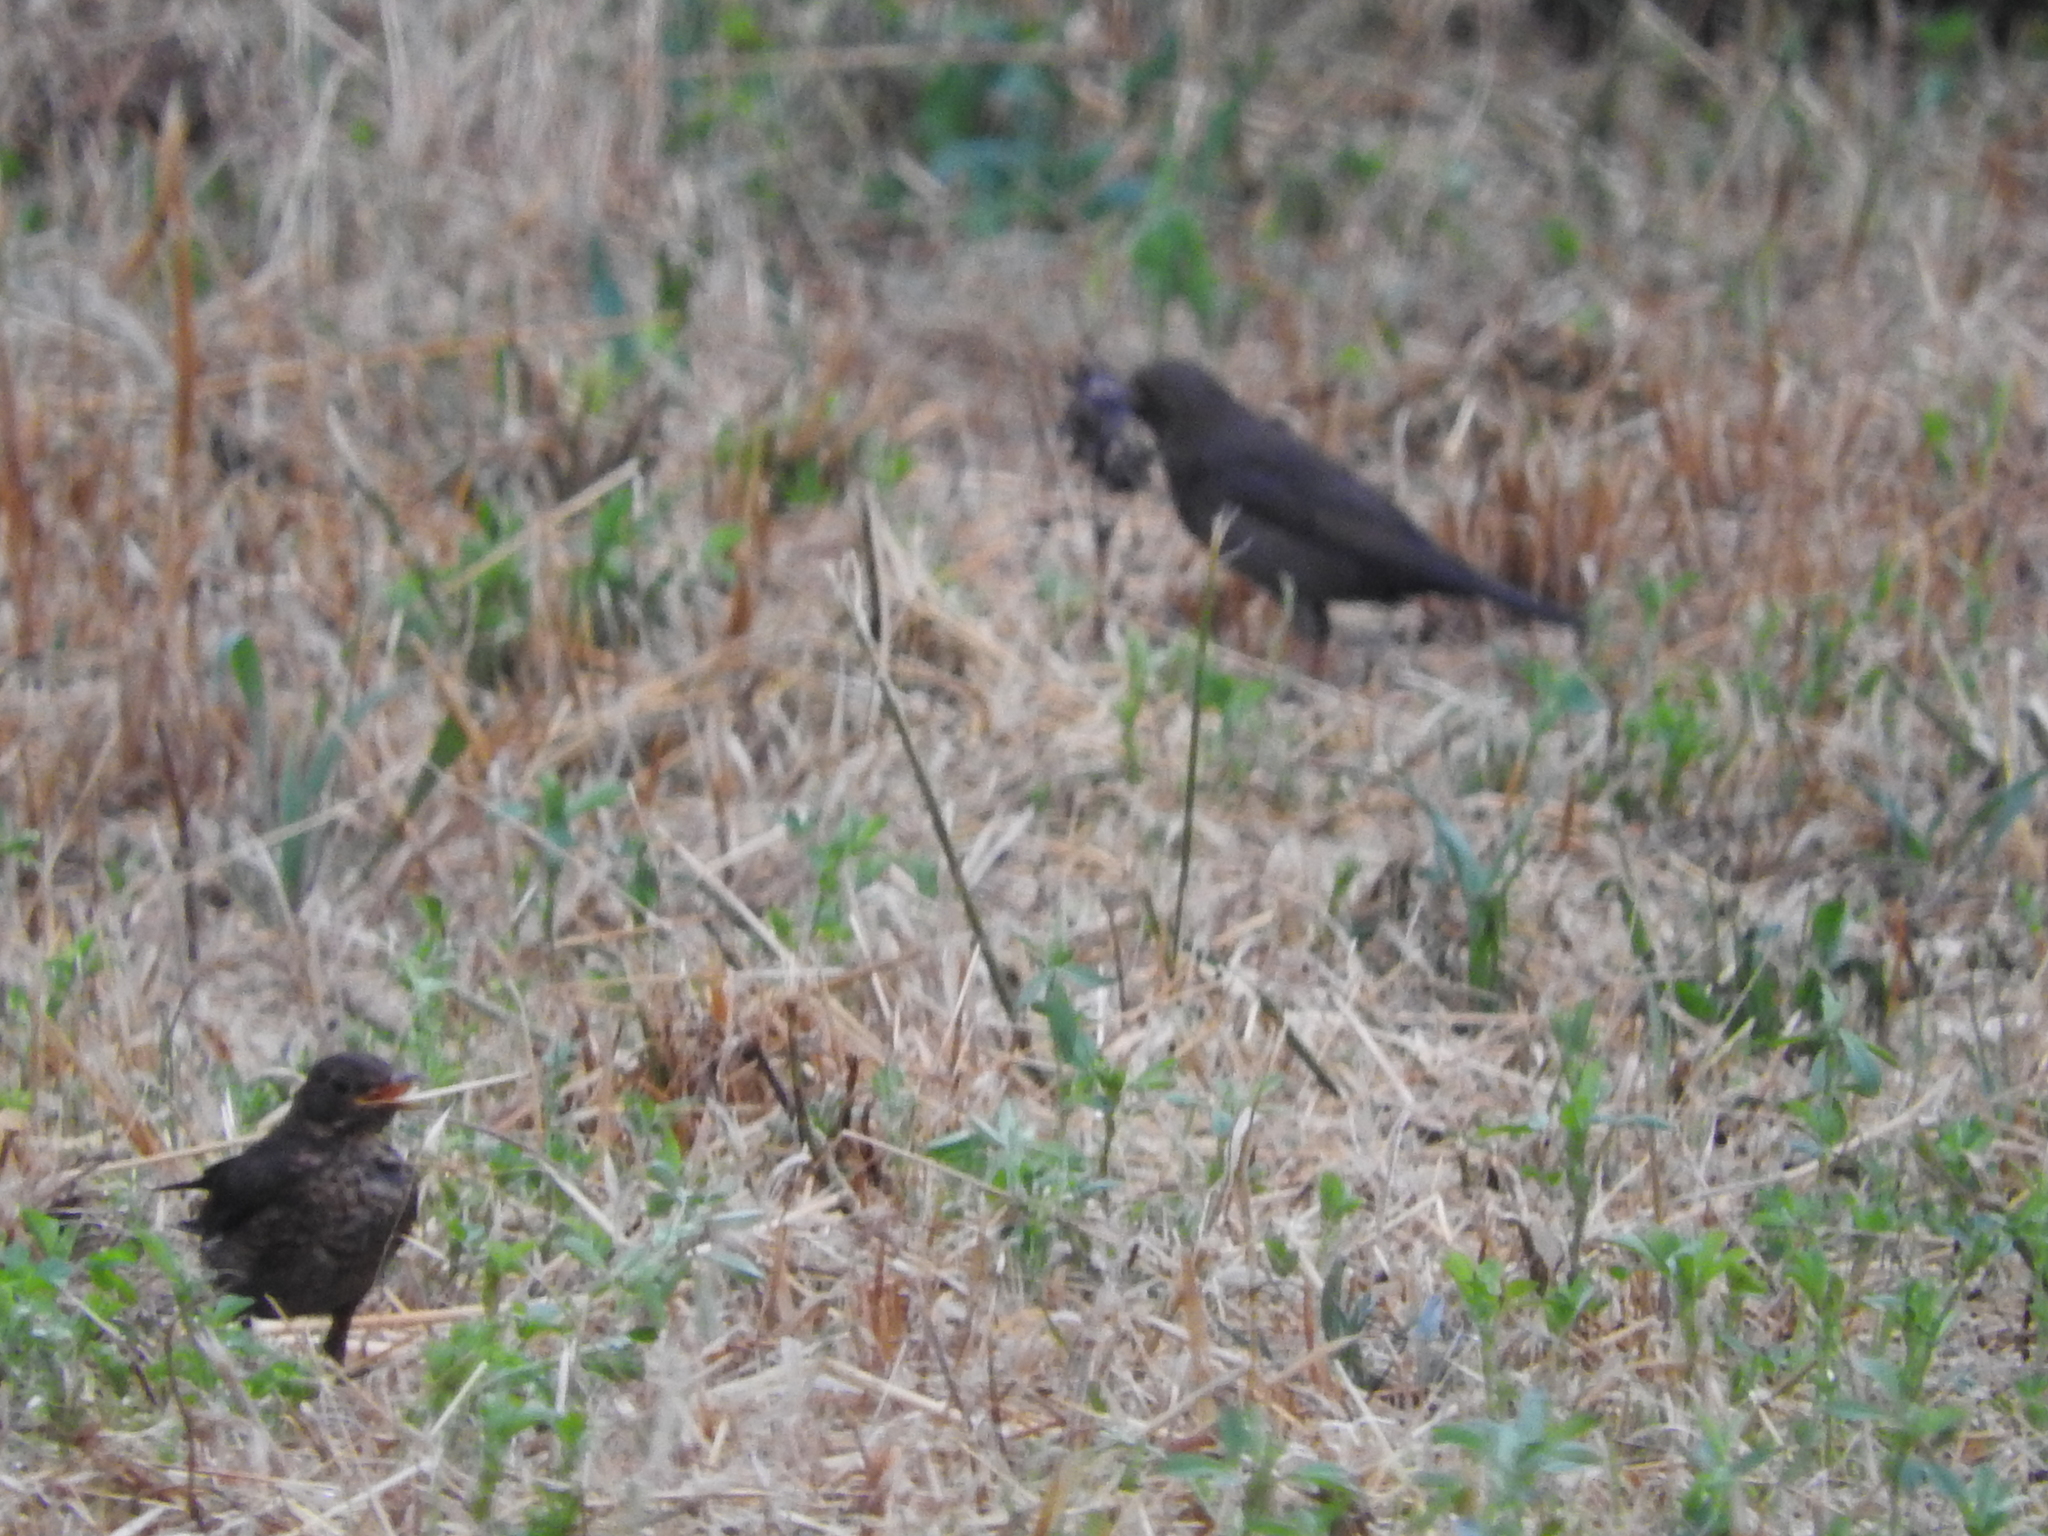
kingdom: Animalia
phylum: Chordata
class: Aves
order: Passeriformes
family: Turdidae
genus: Turdus
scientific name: Turdus merula
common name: Common blackbird
